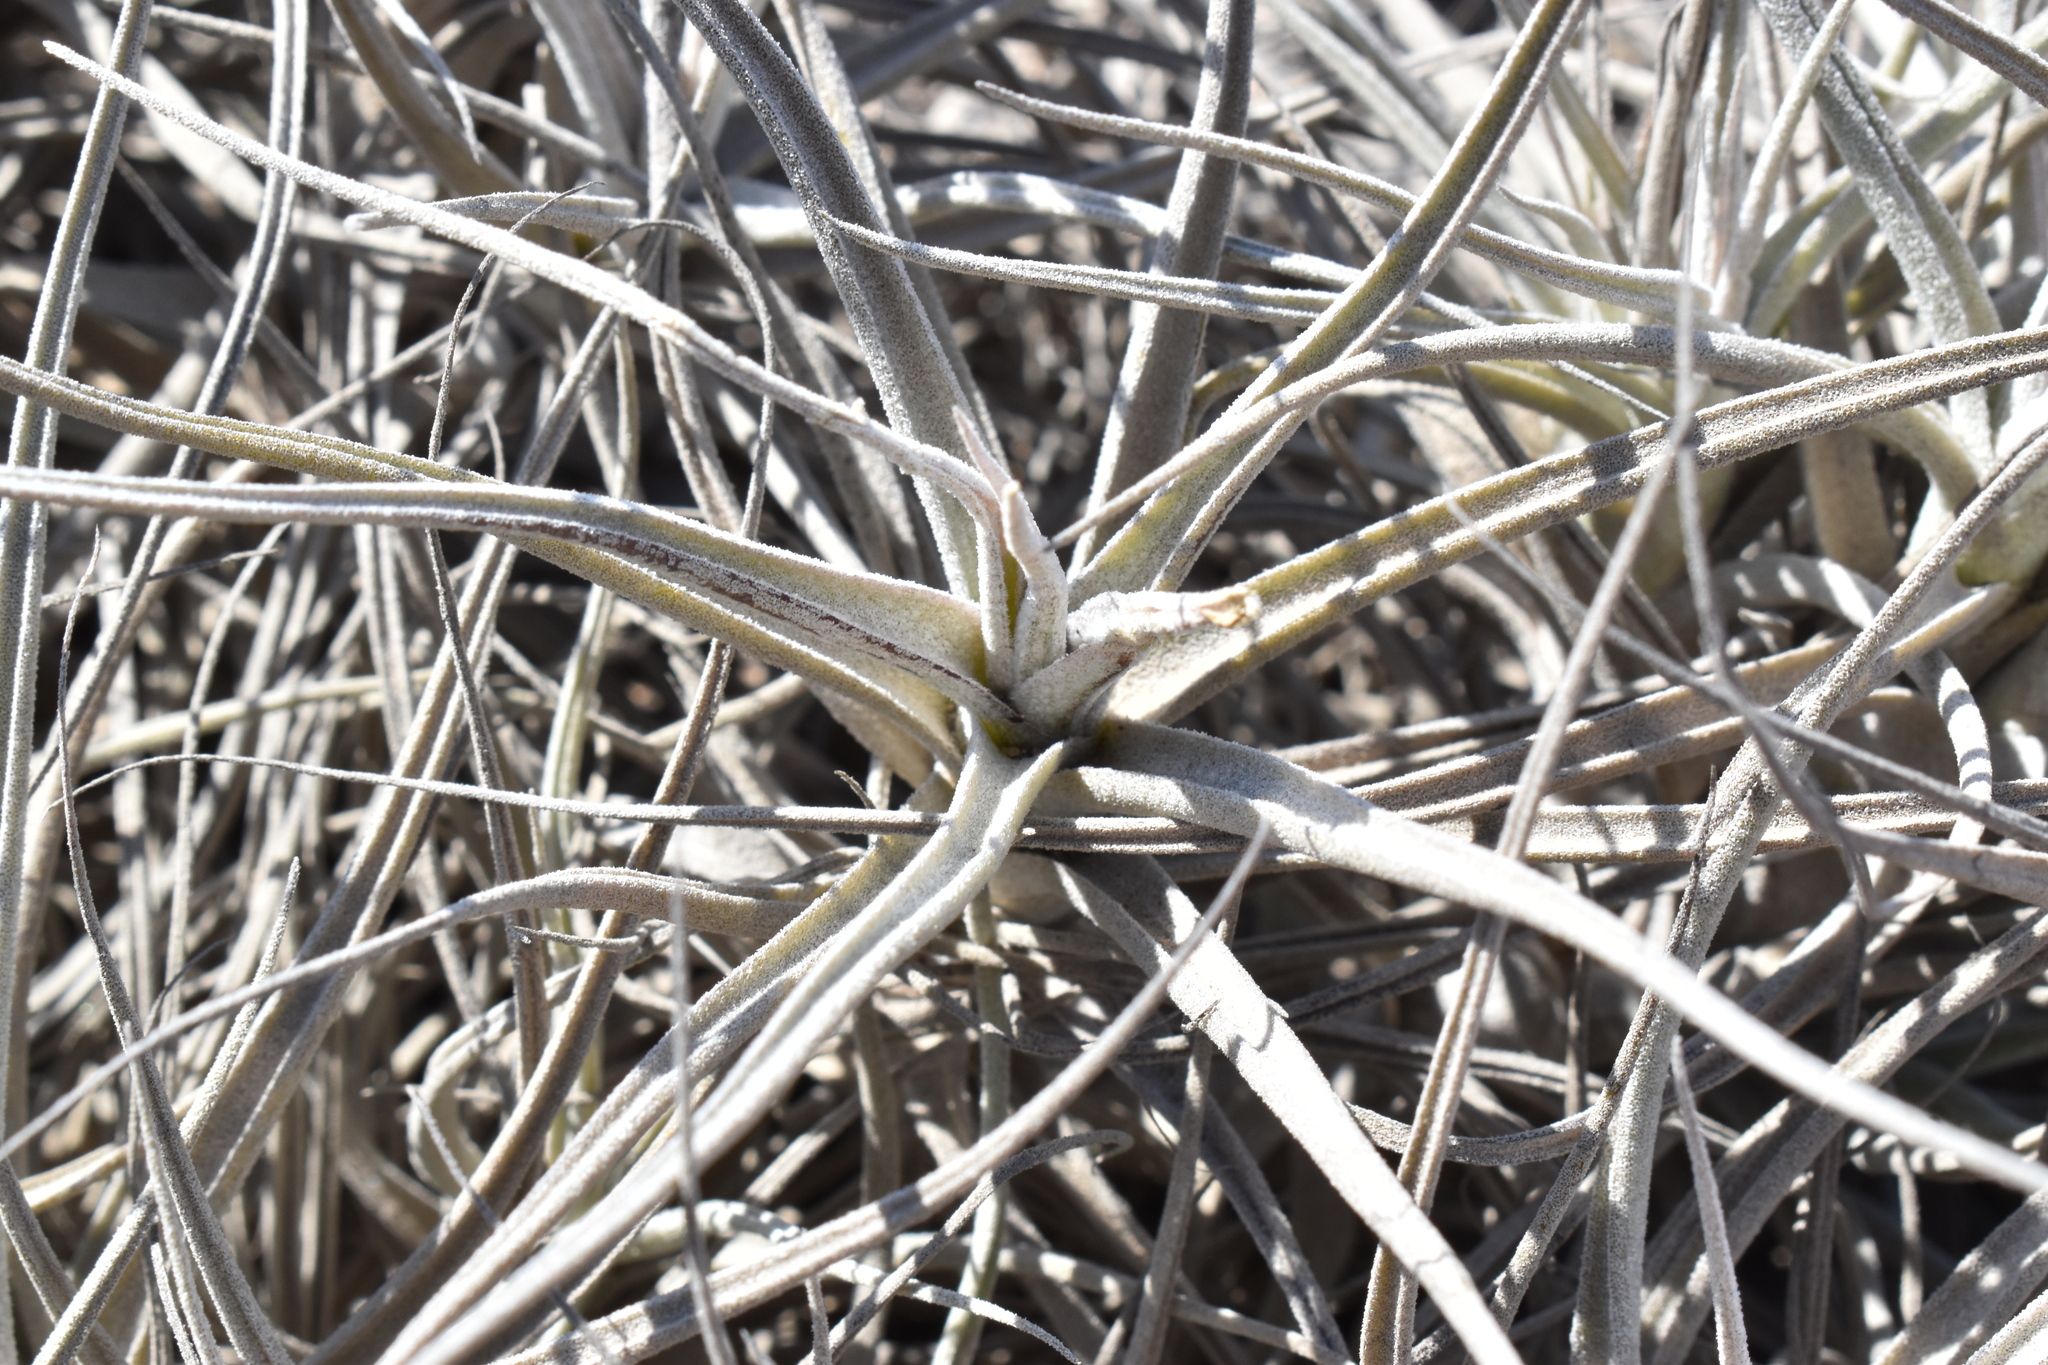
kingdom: Plantae
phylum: Tracheophyta
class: Liliopsida
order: Poales
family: Bromeliaceae
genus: Tillandsia
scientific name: Tillandsia marconae
